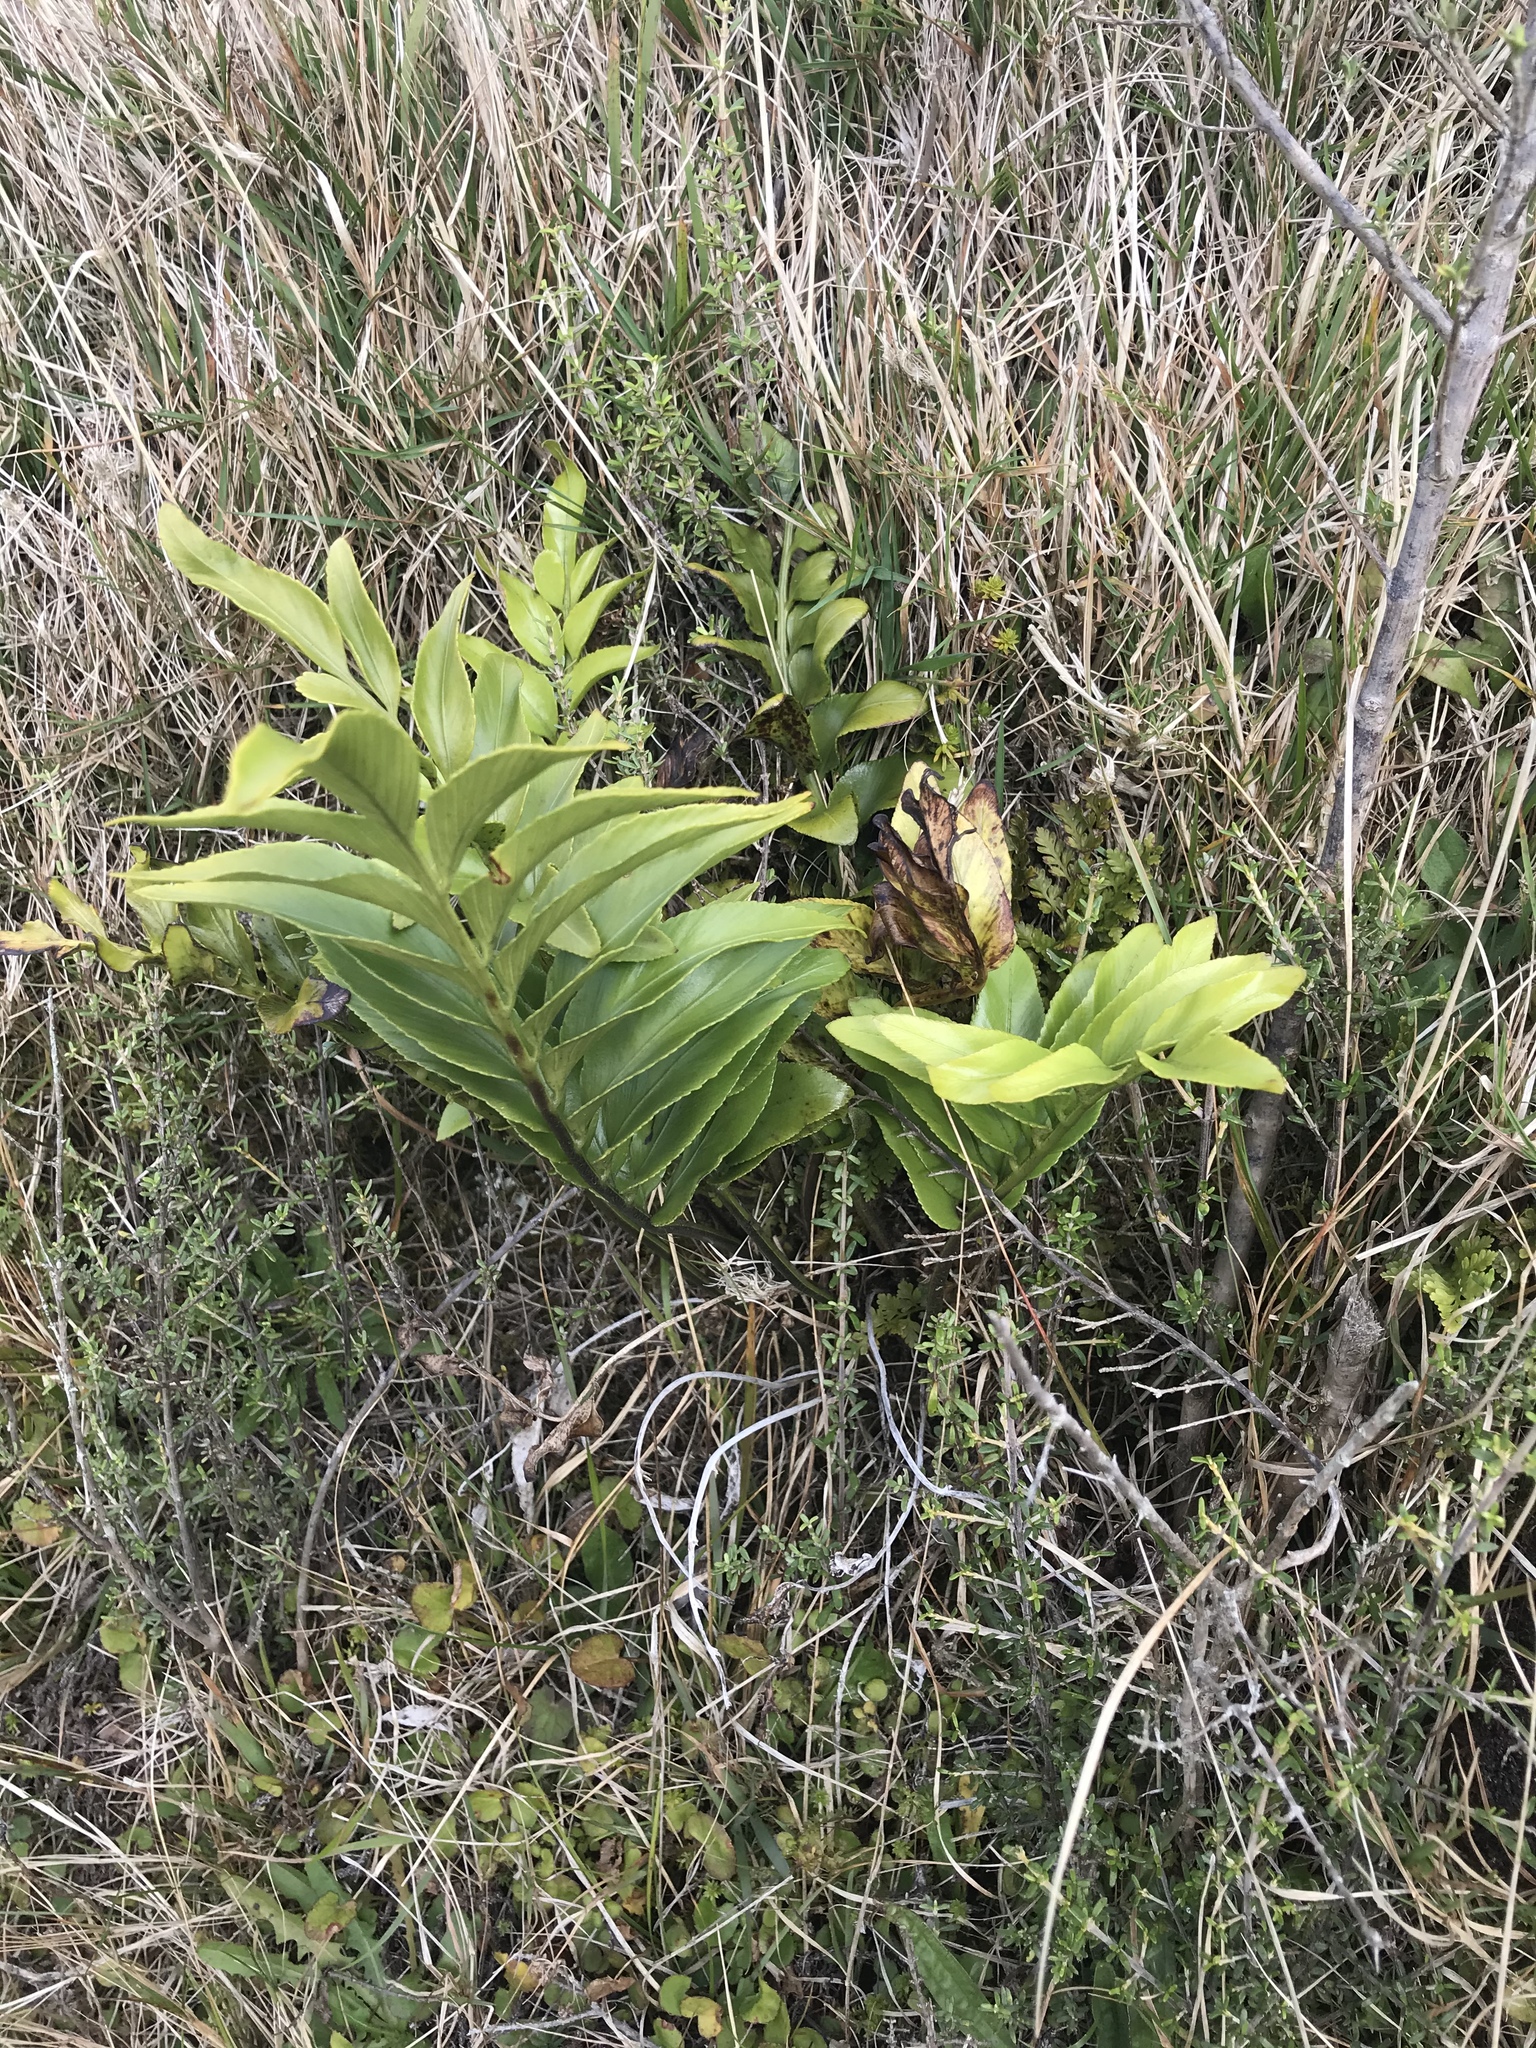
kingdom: Plantae
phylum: Tracheophyta
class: Polypodiopsida
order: Polypodiales
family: Aspleniaceae
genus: Asplenium
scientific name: Asplenium oblongifolium
